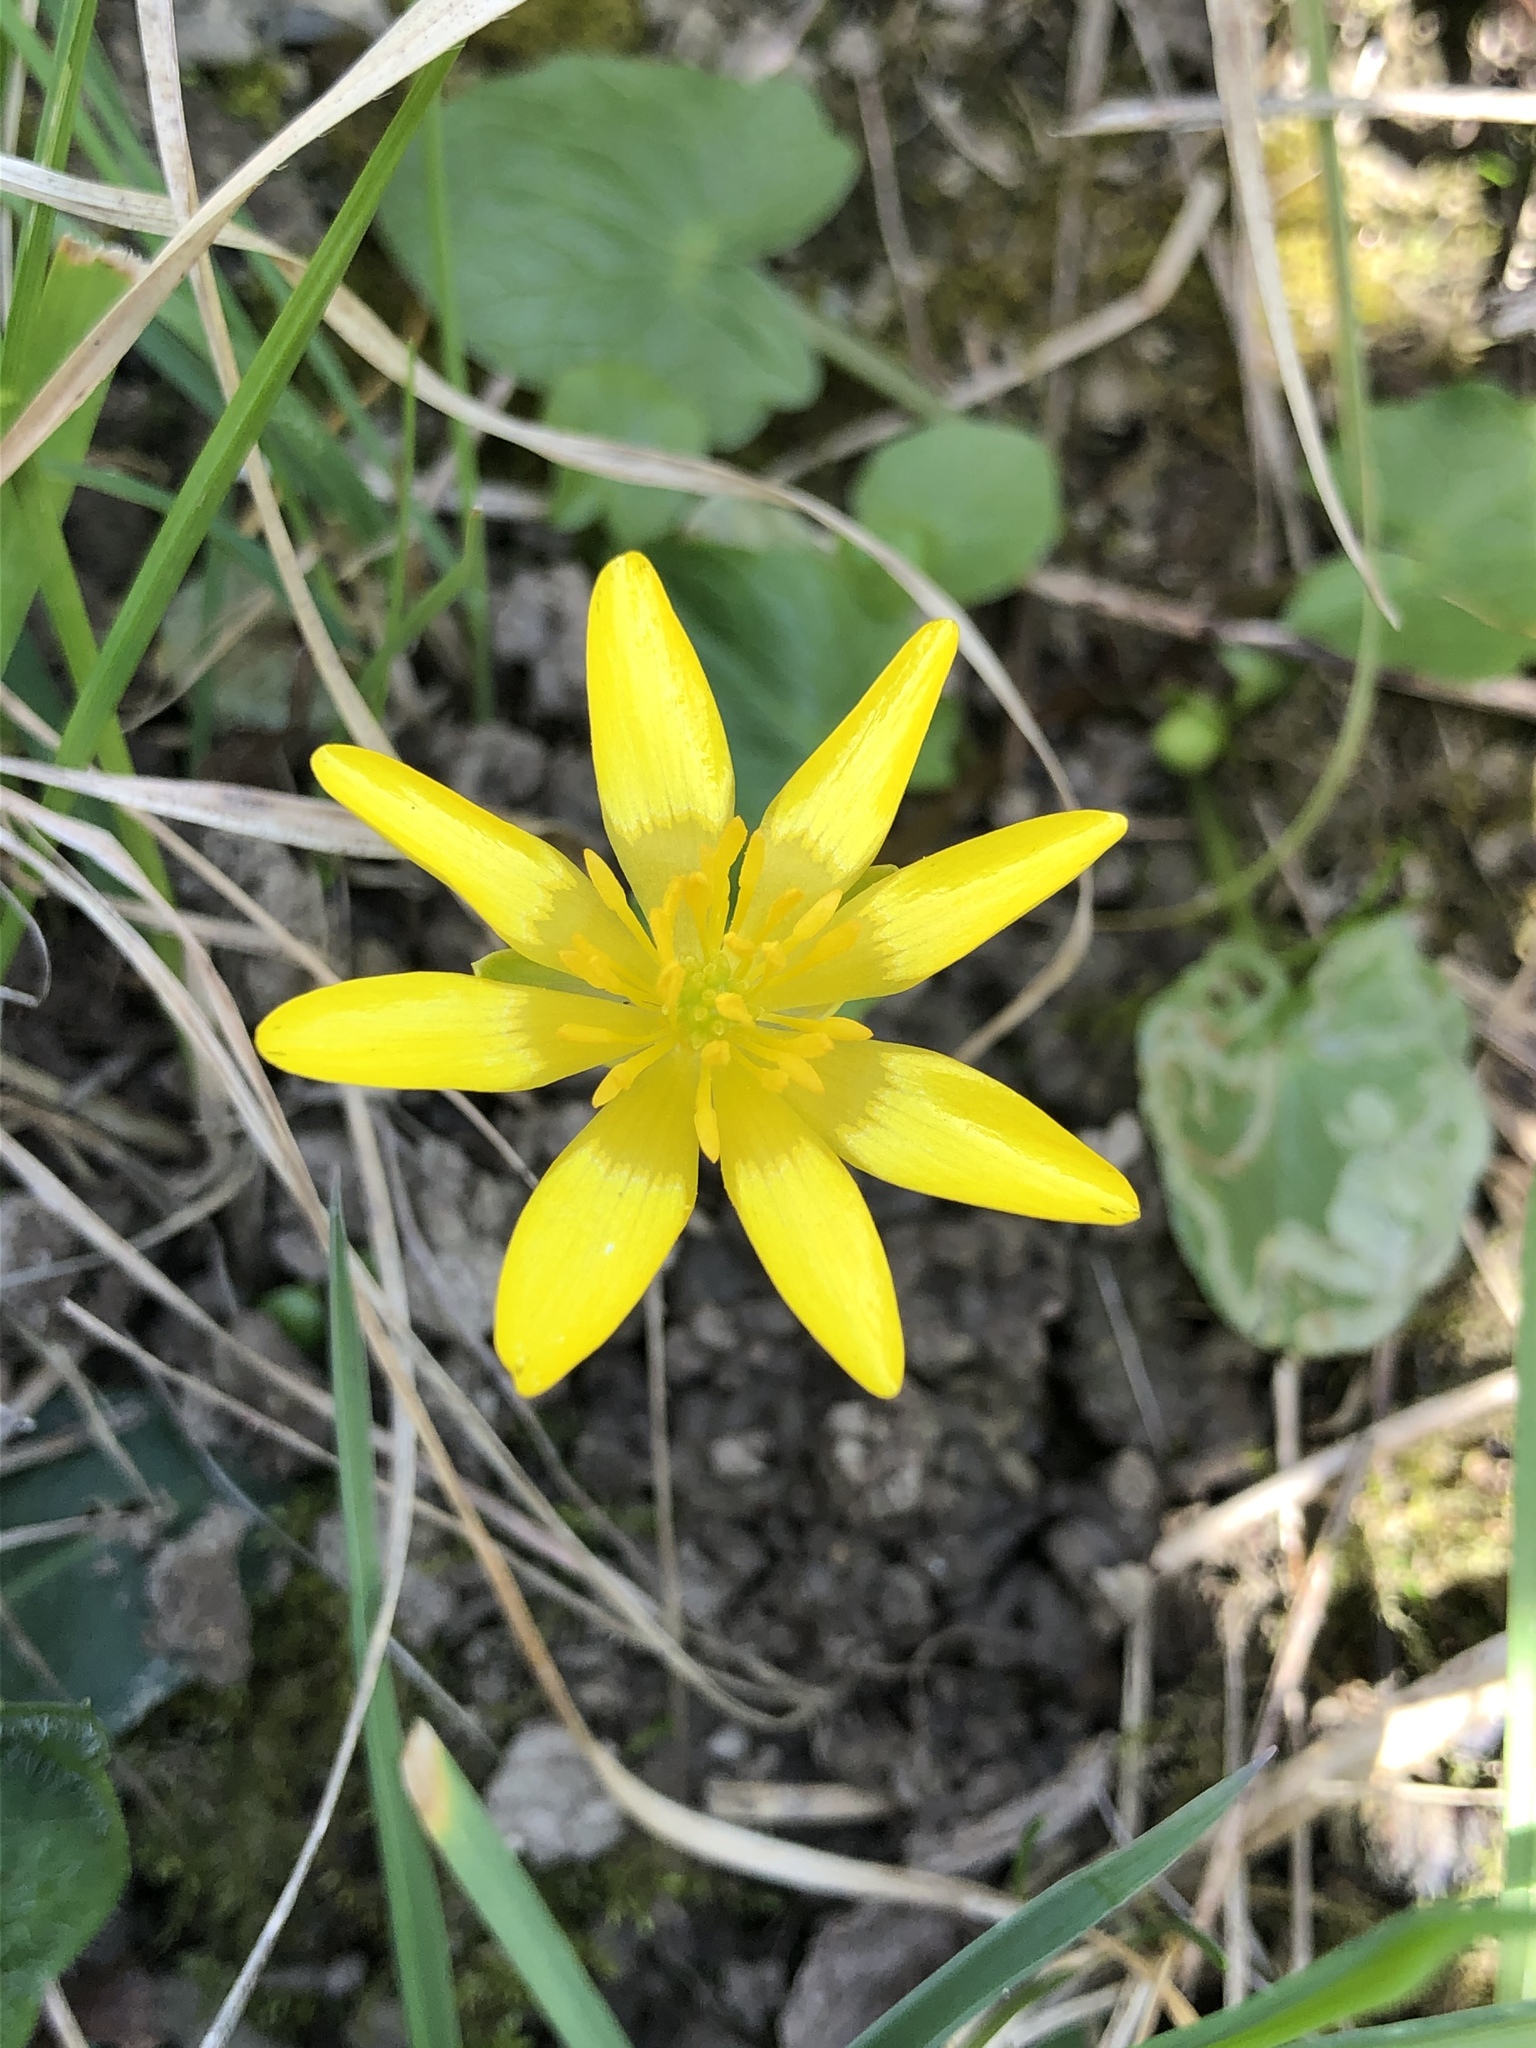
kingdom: Plantae
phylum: Tracheophyta
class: Magnoliopsida
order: Ranunculales
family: Ranunculaceae
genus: Ficaria
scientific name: Ficaria verna
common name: Lesser celandine
